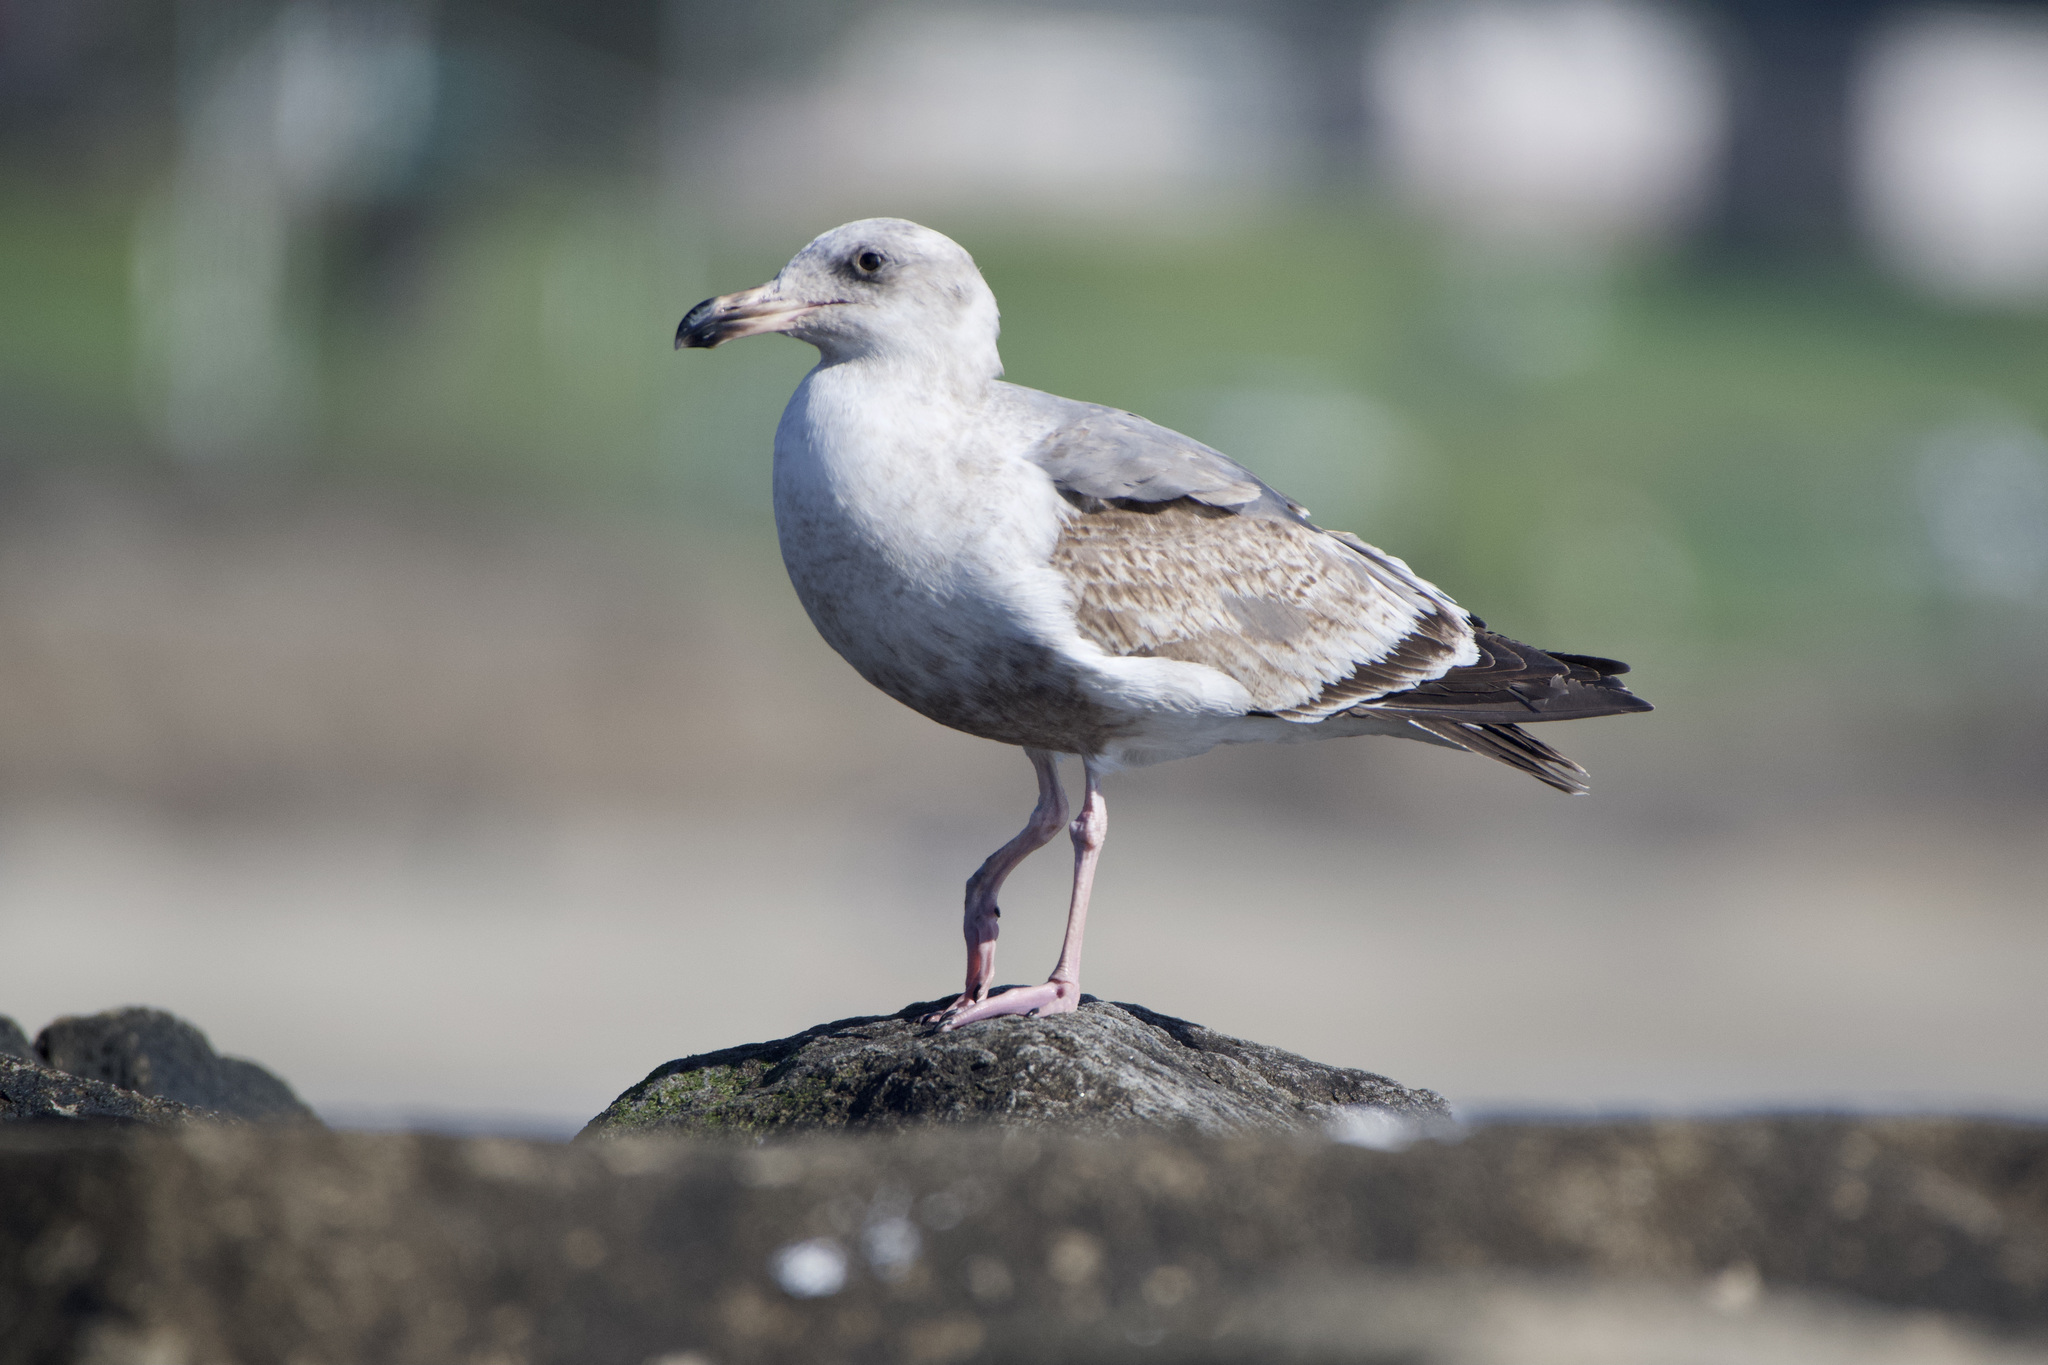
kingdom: Animalia
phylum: Chordata
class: Aves
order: Charadriiformes
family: Laridae
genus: Larus
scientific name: Larus occidentalis
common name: Western gull
